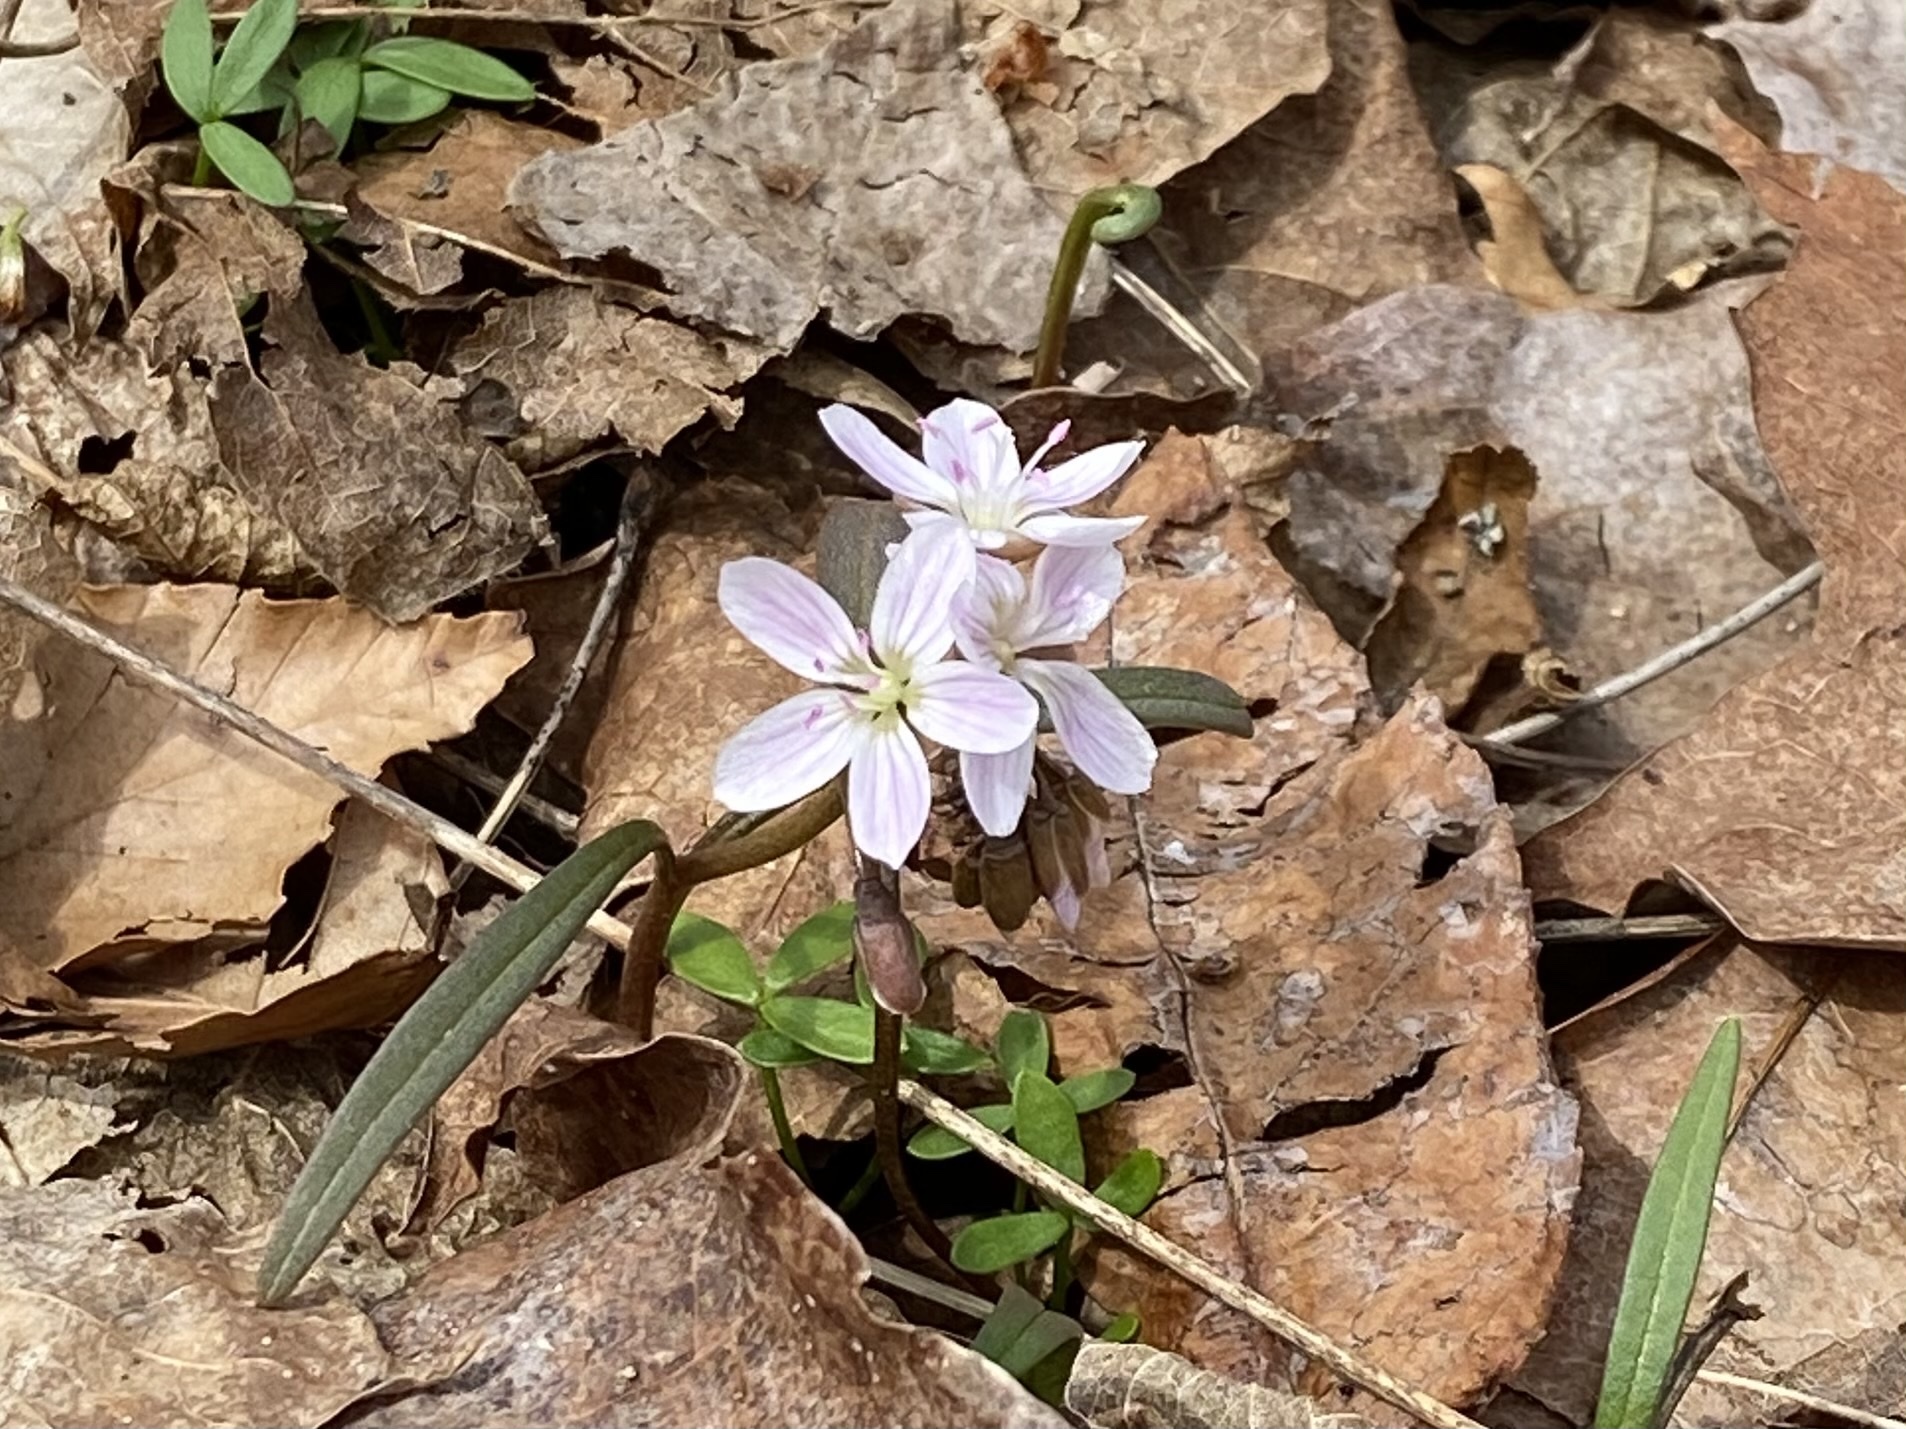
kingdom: Plantae
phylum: Tracheophyta
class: Magnoliopsida
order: Caryophyllales
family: Montiaceae
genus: Claytonia
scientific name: Claytonia virginica
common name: Virginia springbeauty
